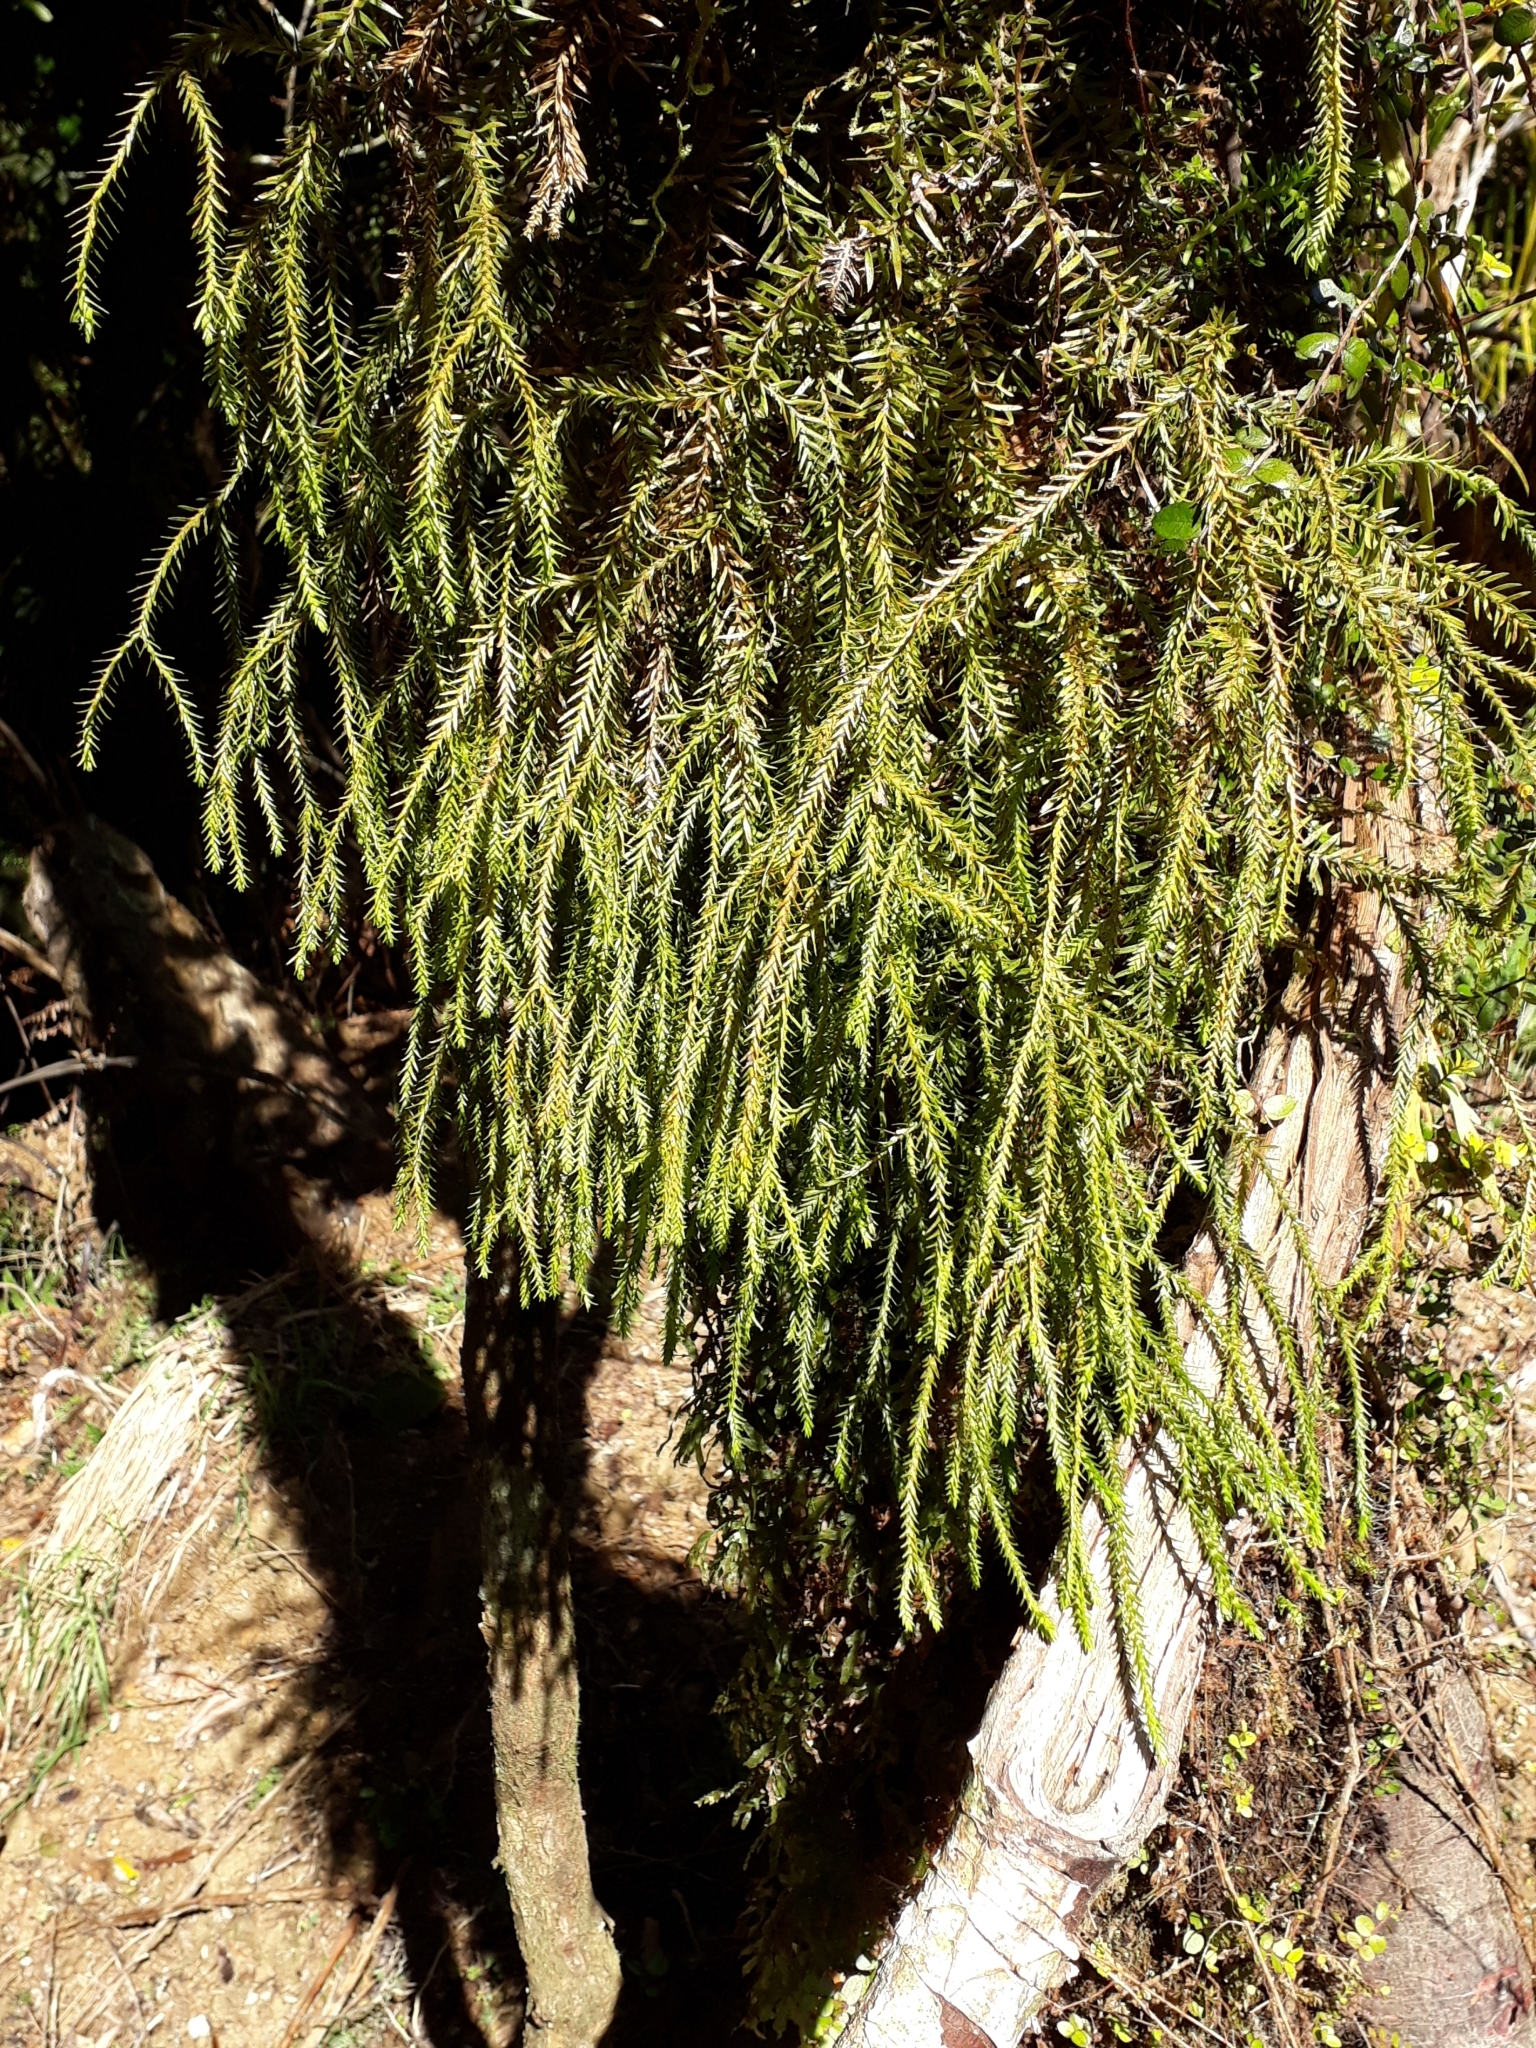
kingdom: Plantae
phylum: Tracheophyta
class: Lycopodiopsida
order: Lycopodiales
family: Lycopodiaceae
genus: Phlegmariurus
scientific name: Phlegmariurus varius
